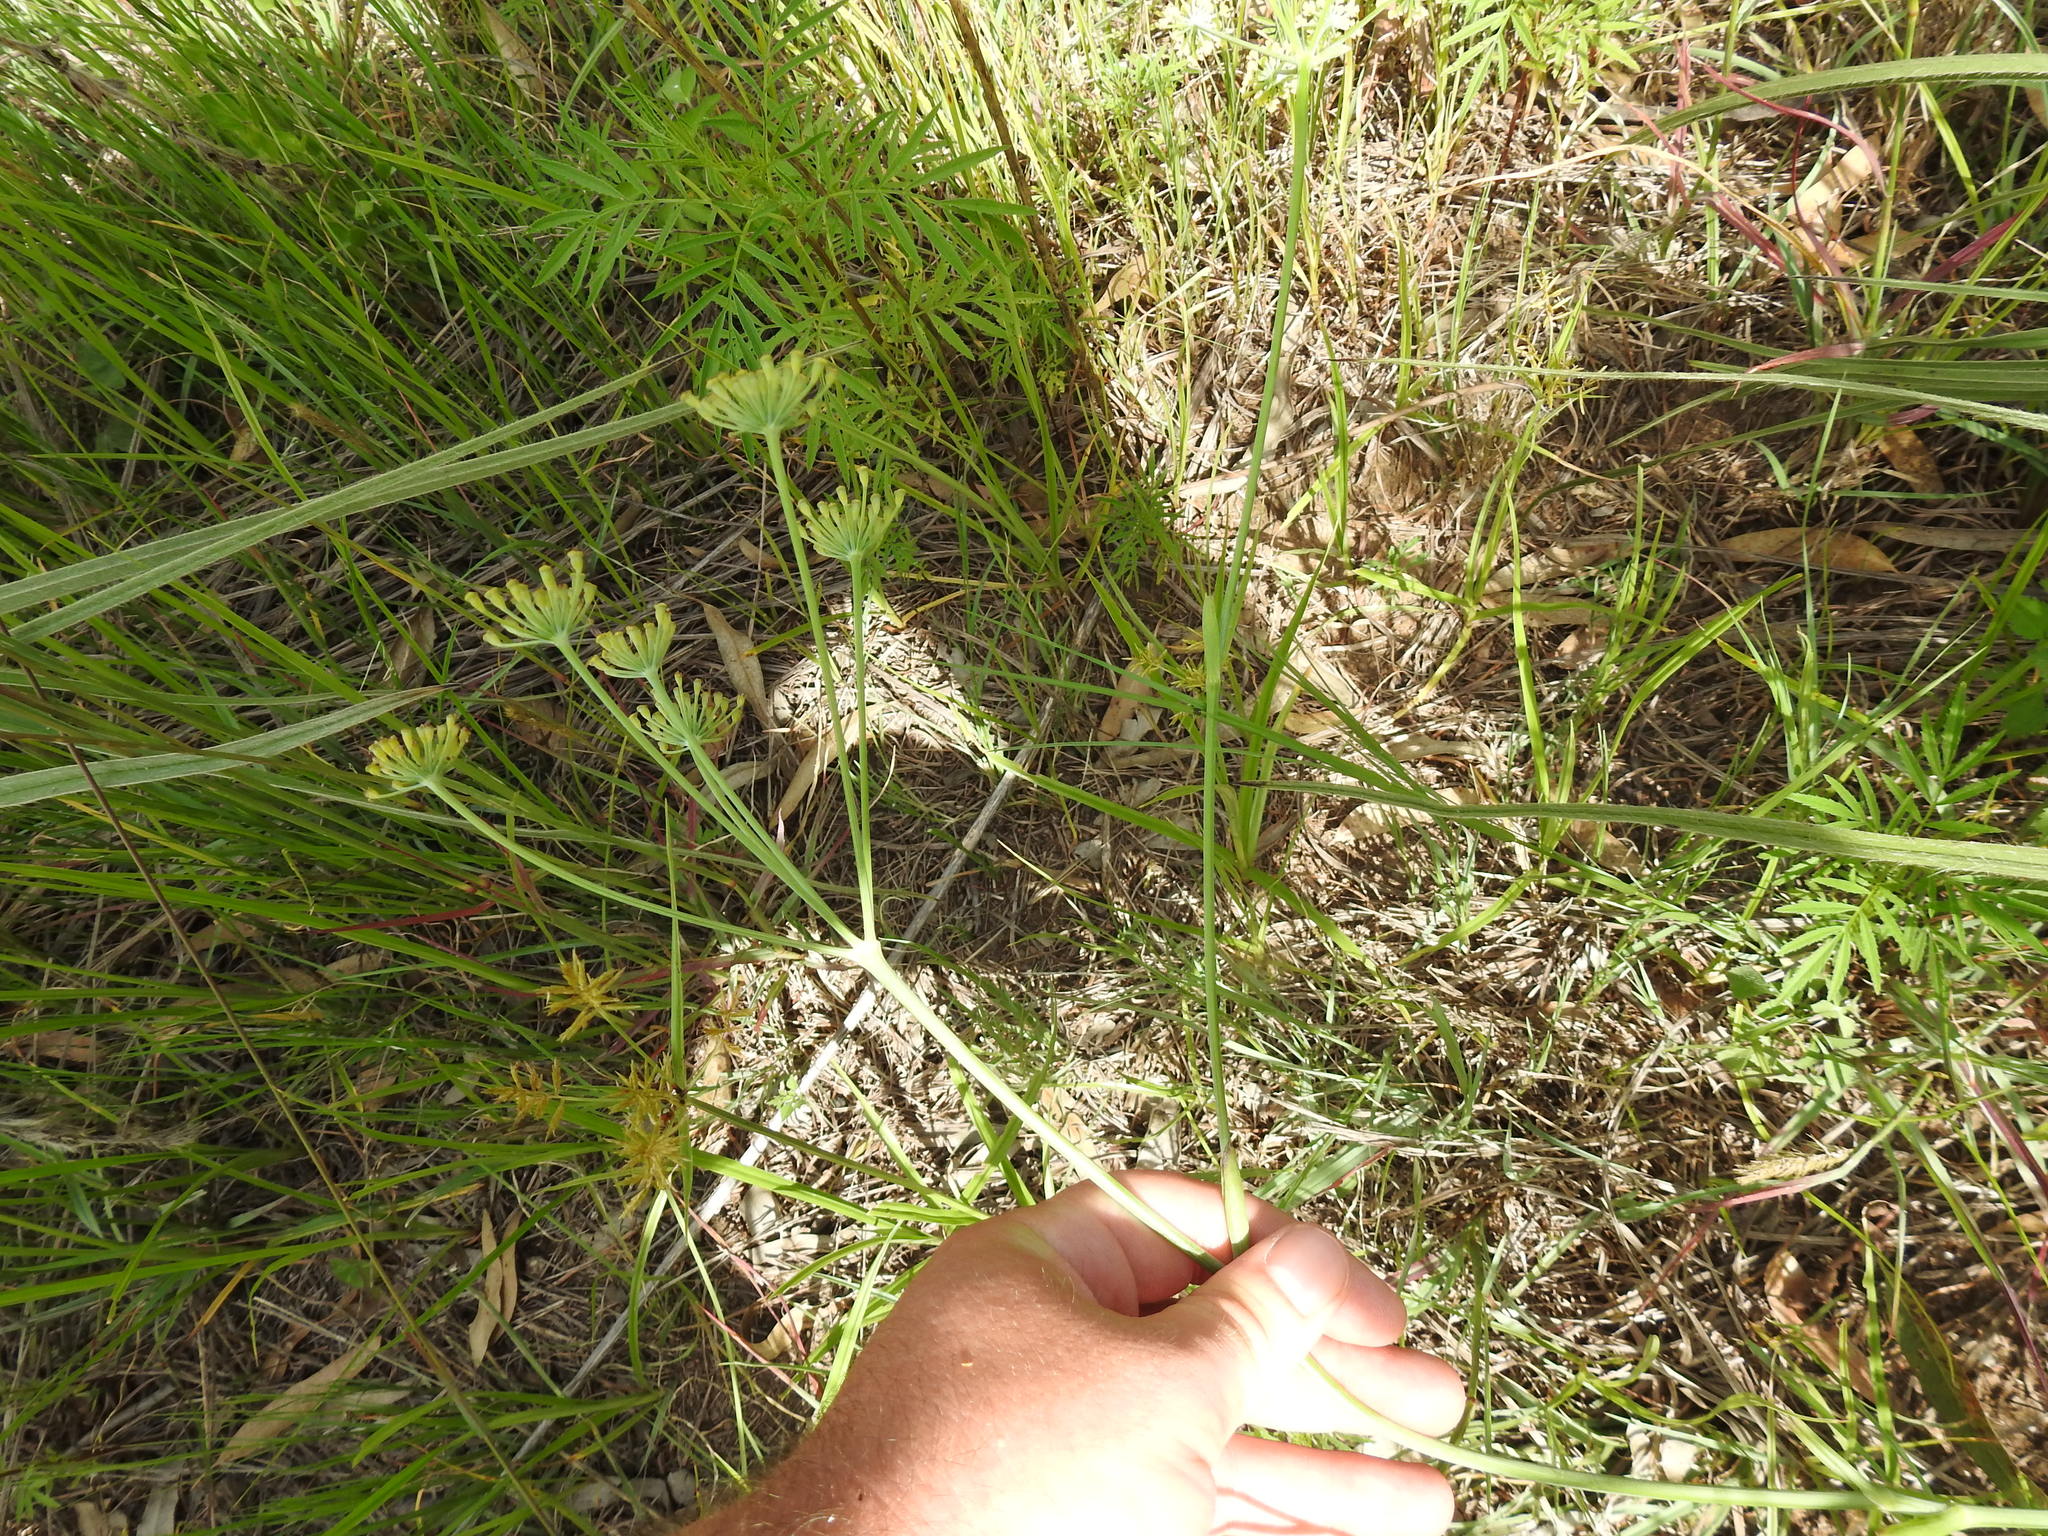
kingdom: Plantae
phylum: Tracheophyta
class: Magnoliopsida
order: Apiales
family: Apiaceae
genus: Afrosciadium
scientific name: Afrosciadium magalismontanum
